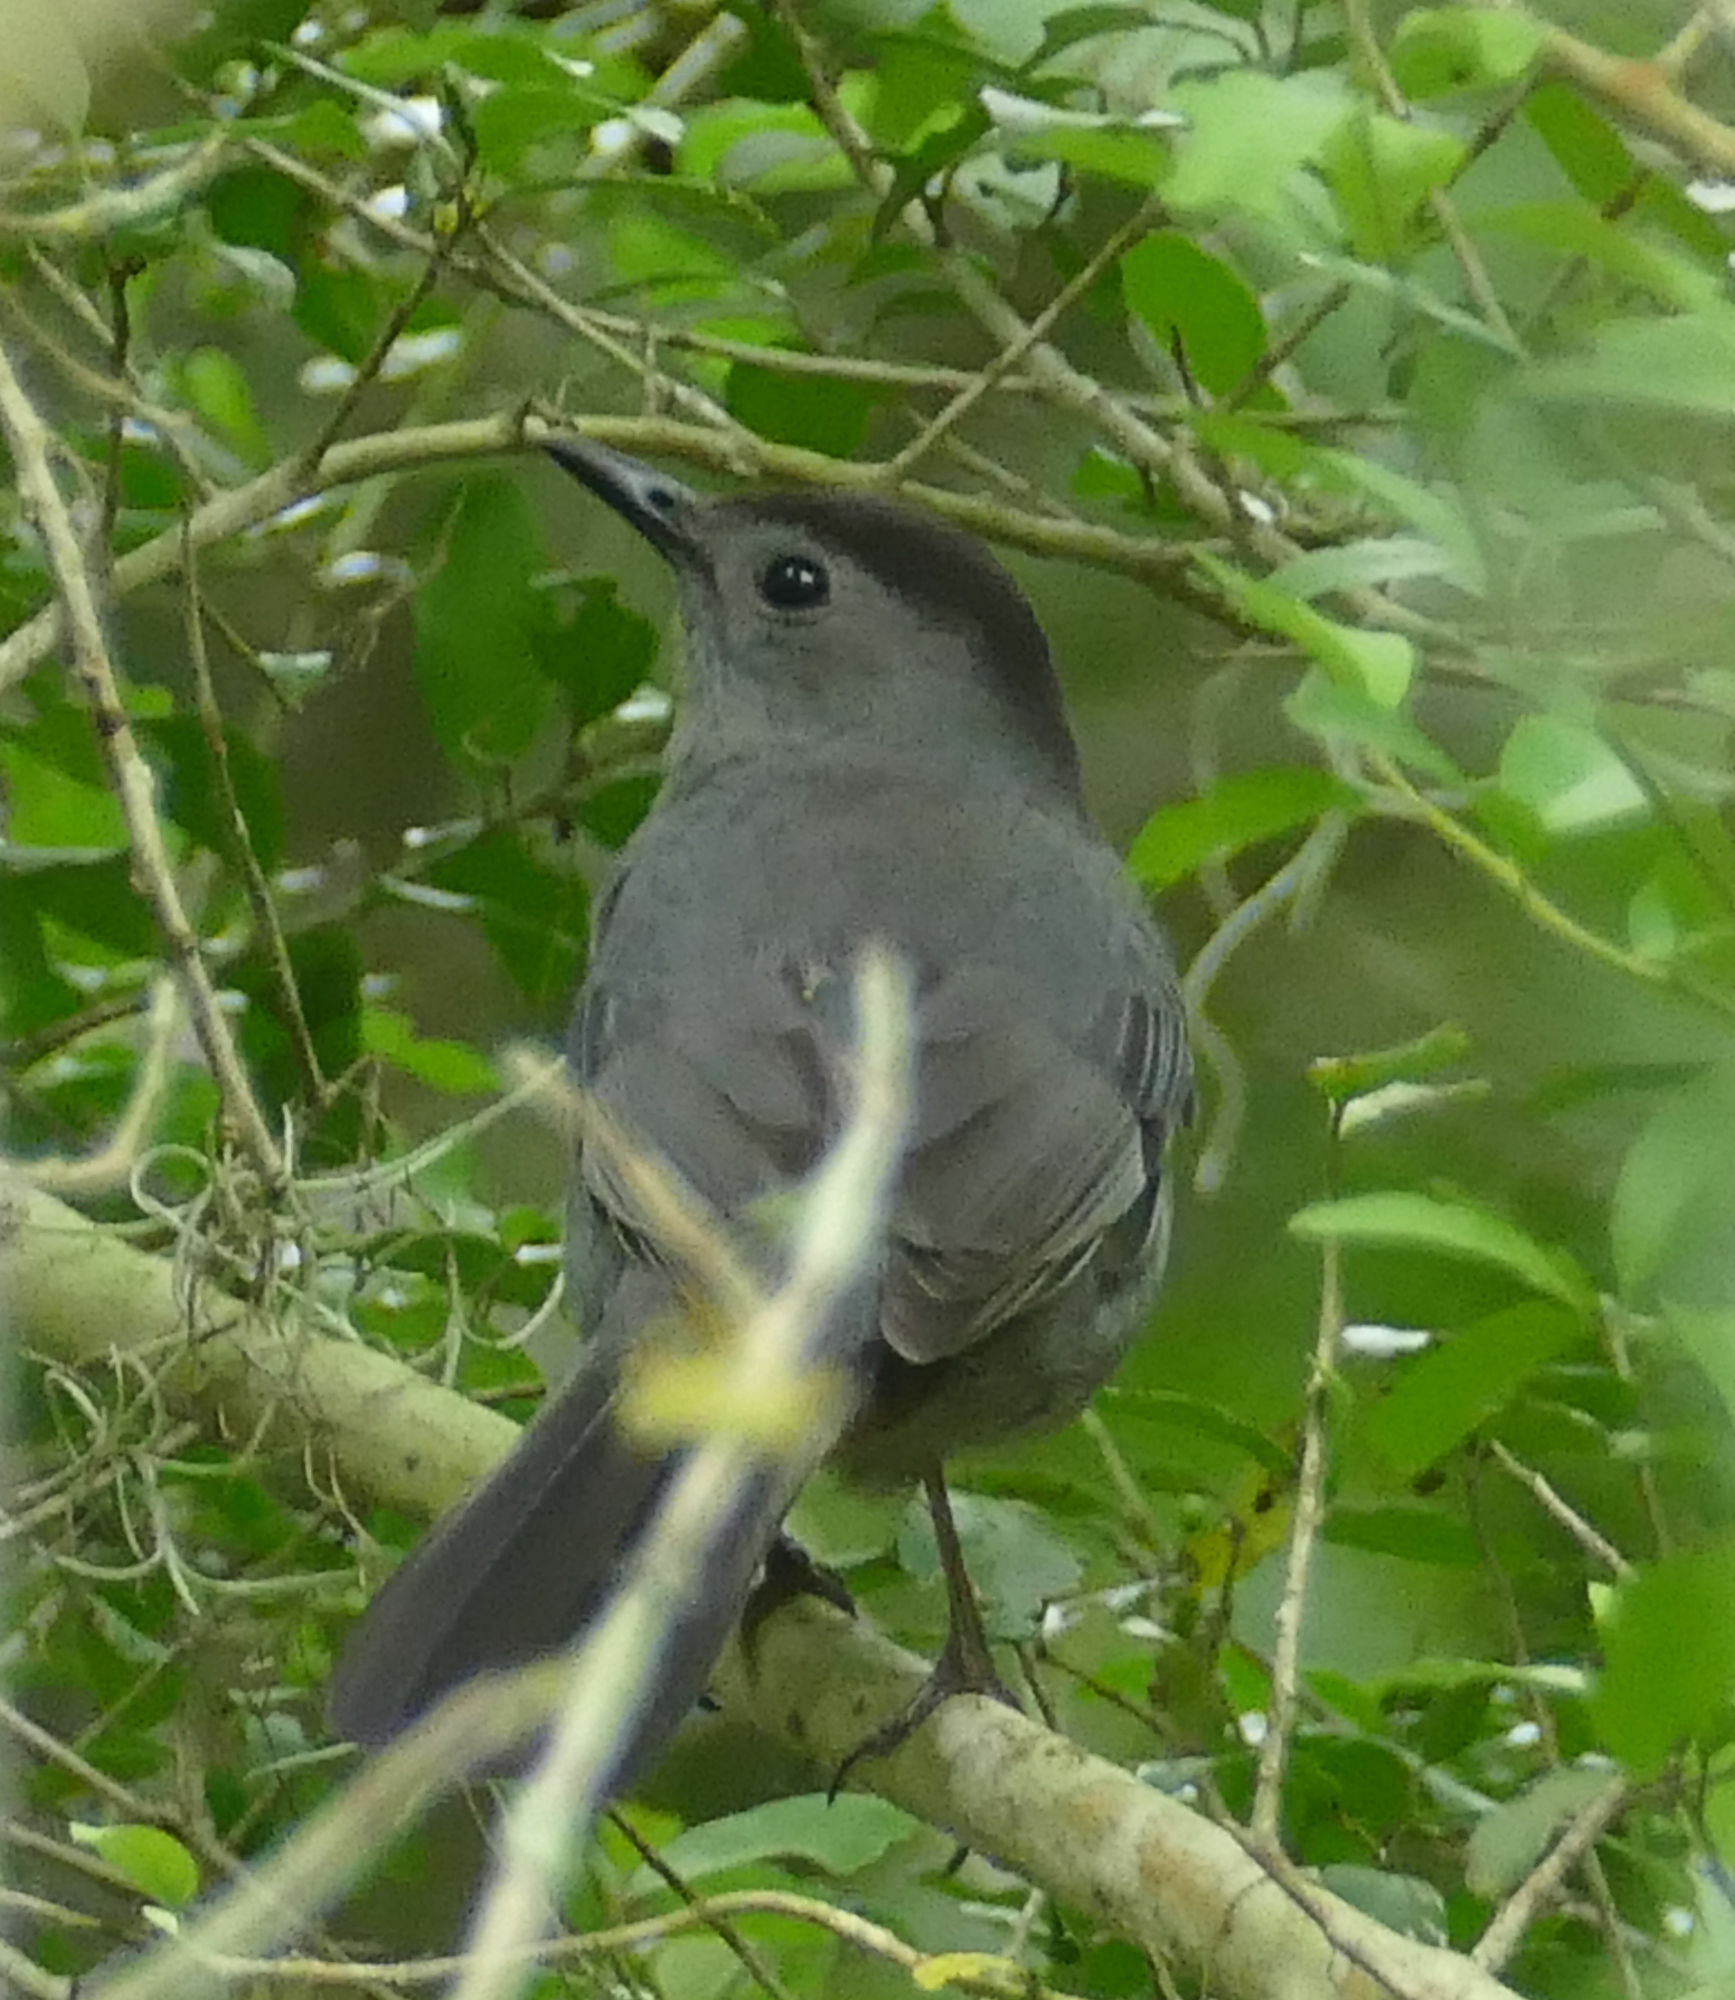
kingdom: Animalia
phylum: Chordata
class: Aves
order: Passeriformes
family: Mimidae
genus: Dumetella
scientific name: Dumetella carolinensis
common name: Gray catbird
